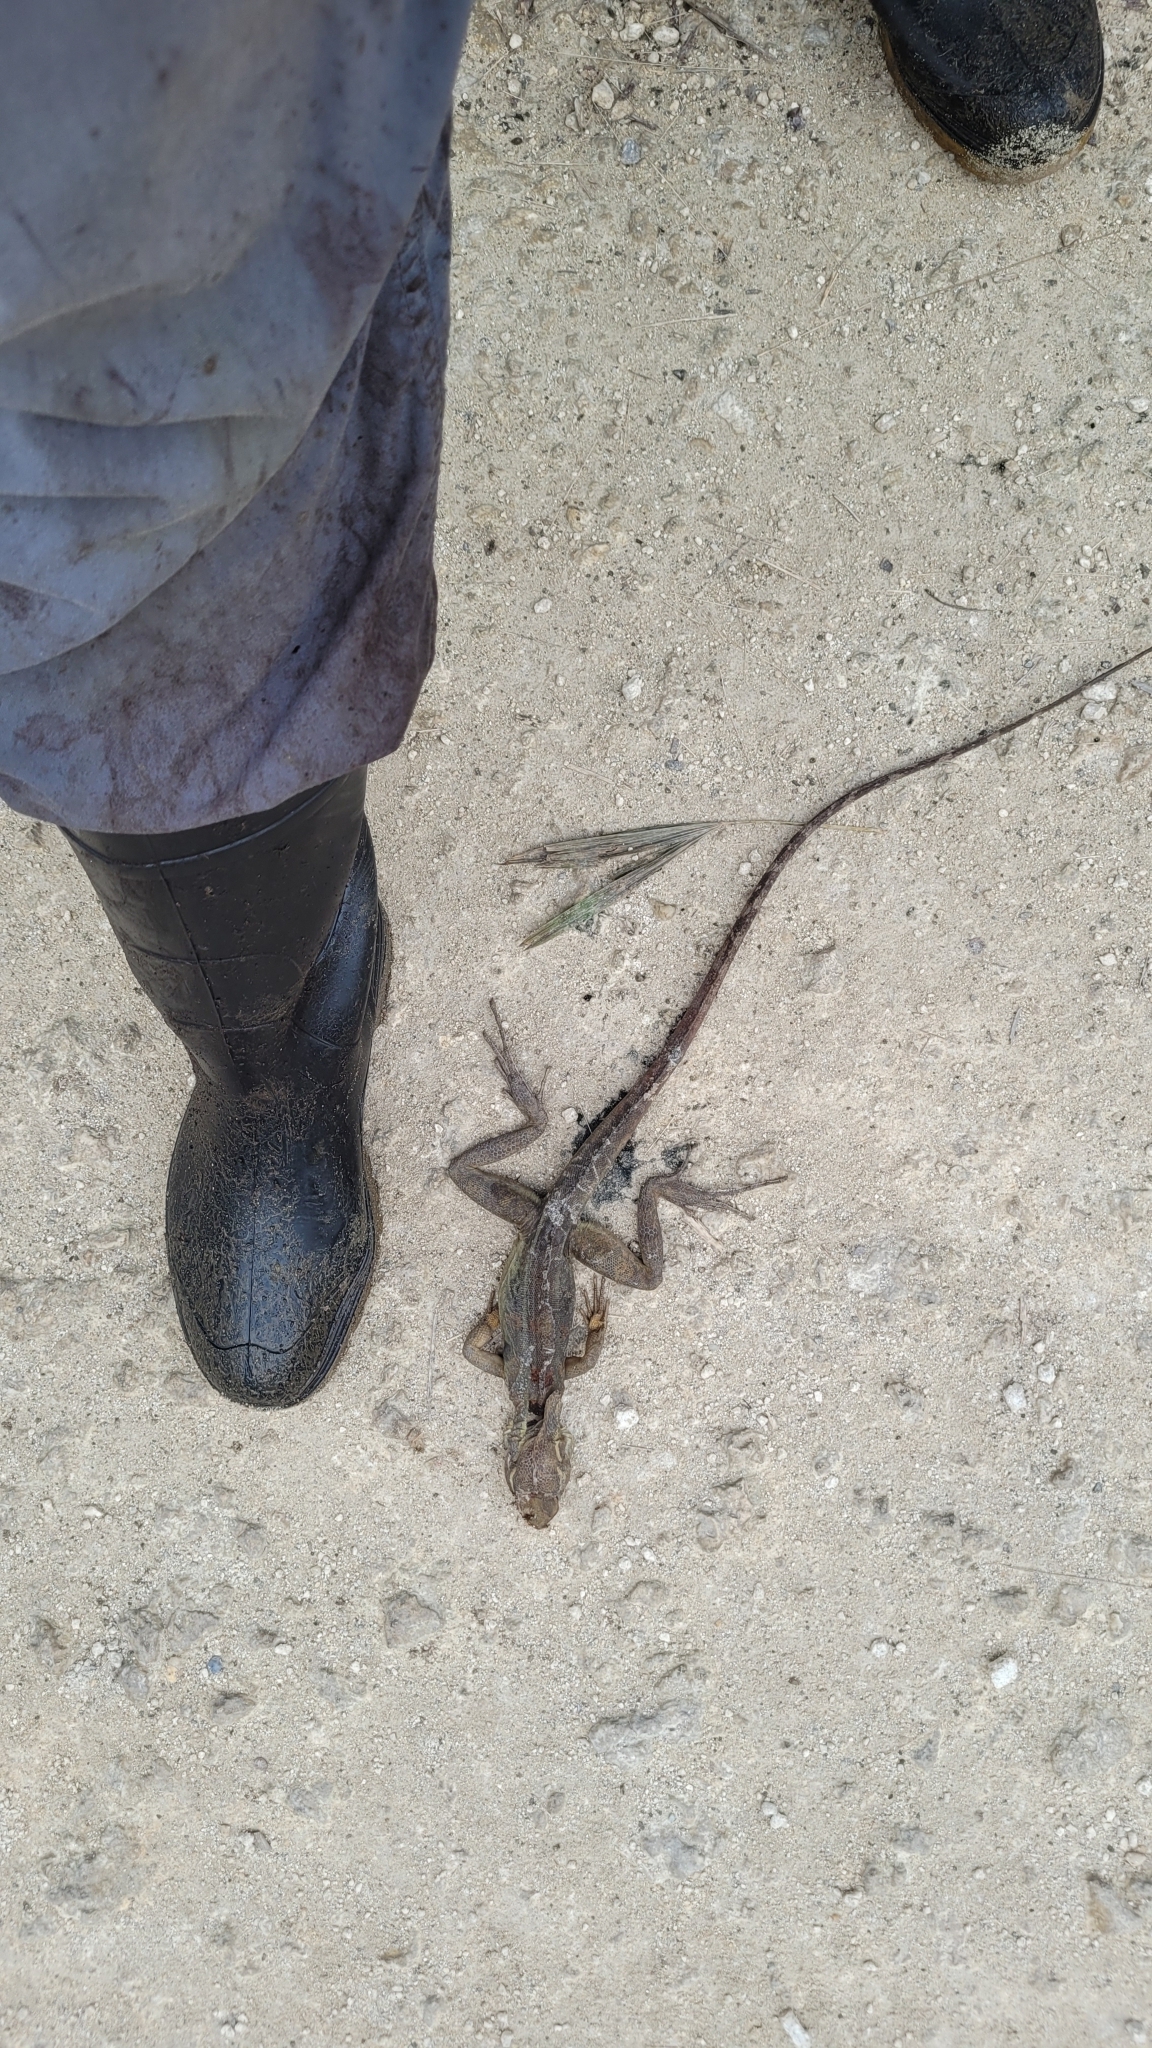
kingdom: Animalia
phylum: Chordata
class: Squamata
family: Corytophanidae
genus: Basiliscus
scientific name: Basiliscus vittatus
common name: Brown basilisk
